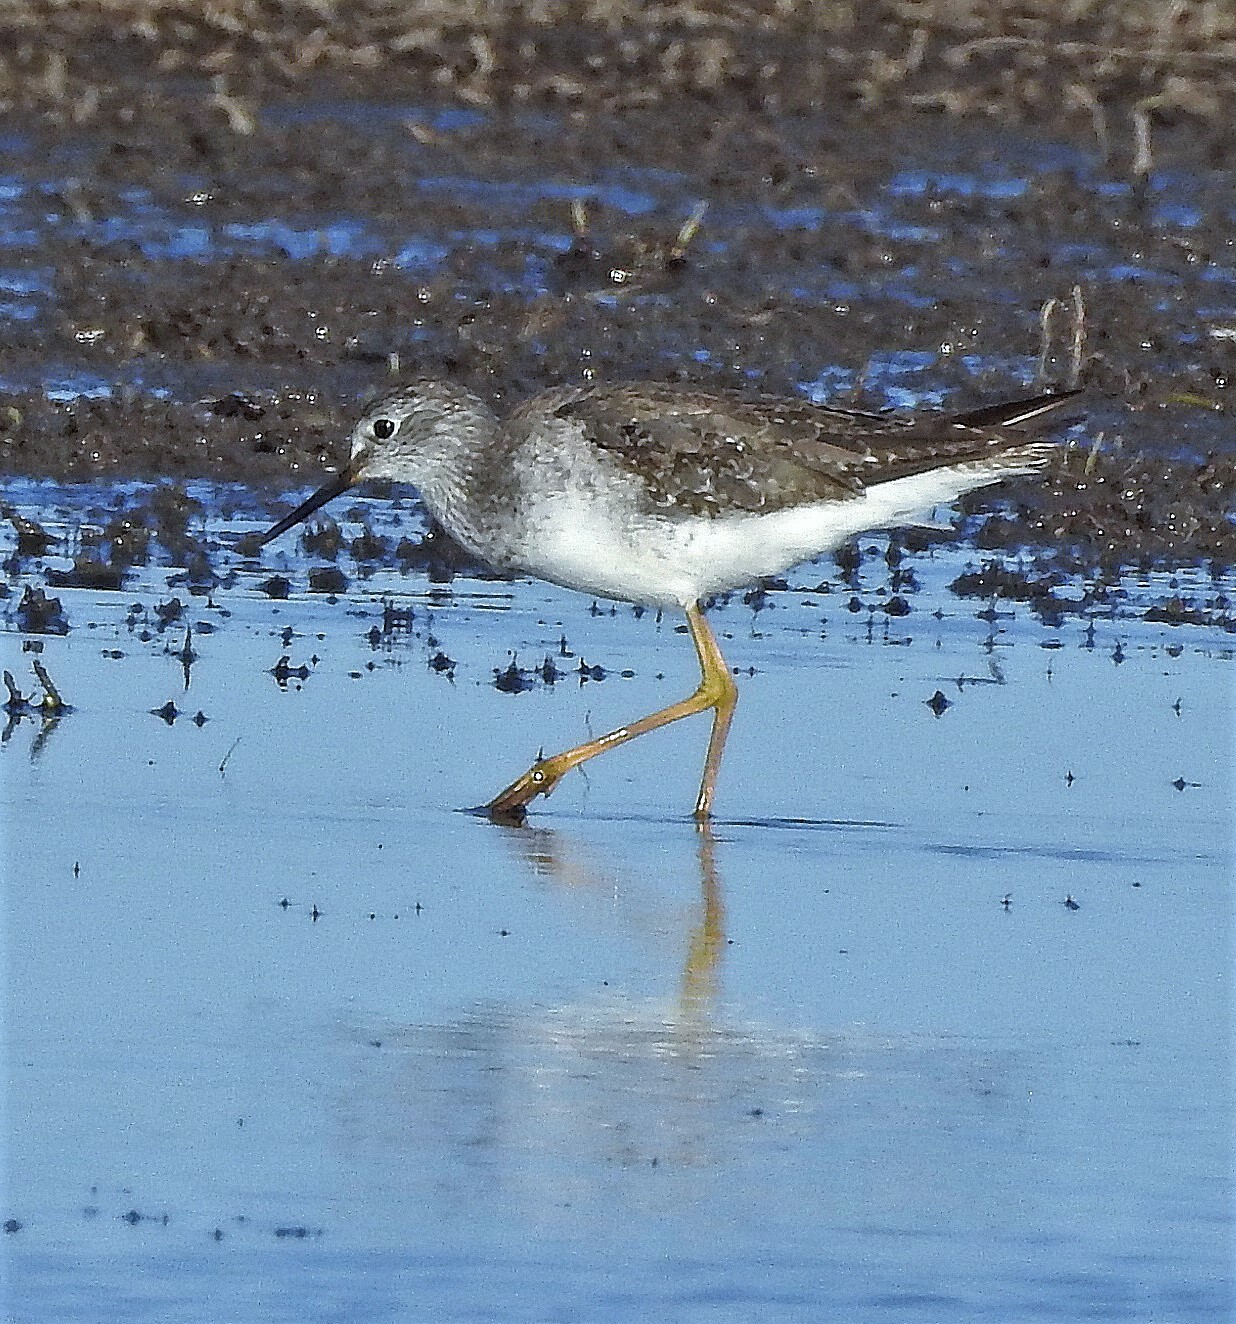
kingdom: Animalia
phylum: Chordata
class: Aves
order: Charadriiformes
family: Scolopacidae
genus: Tringa
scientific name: Tringa flavipes
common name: Lesser yellowlegs
